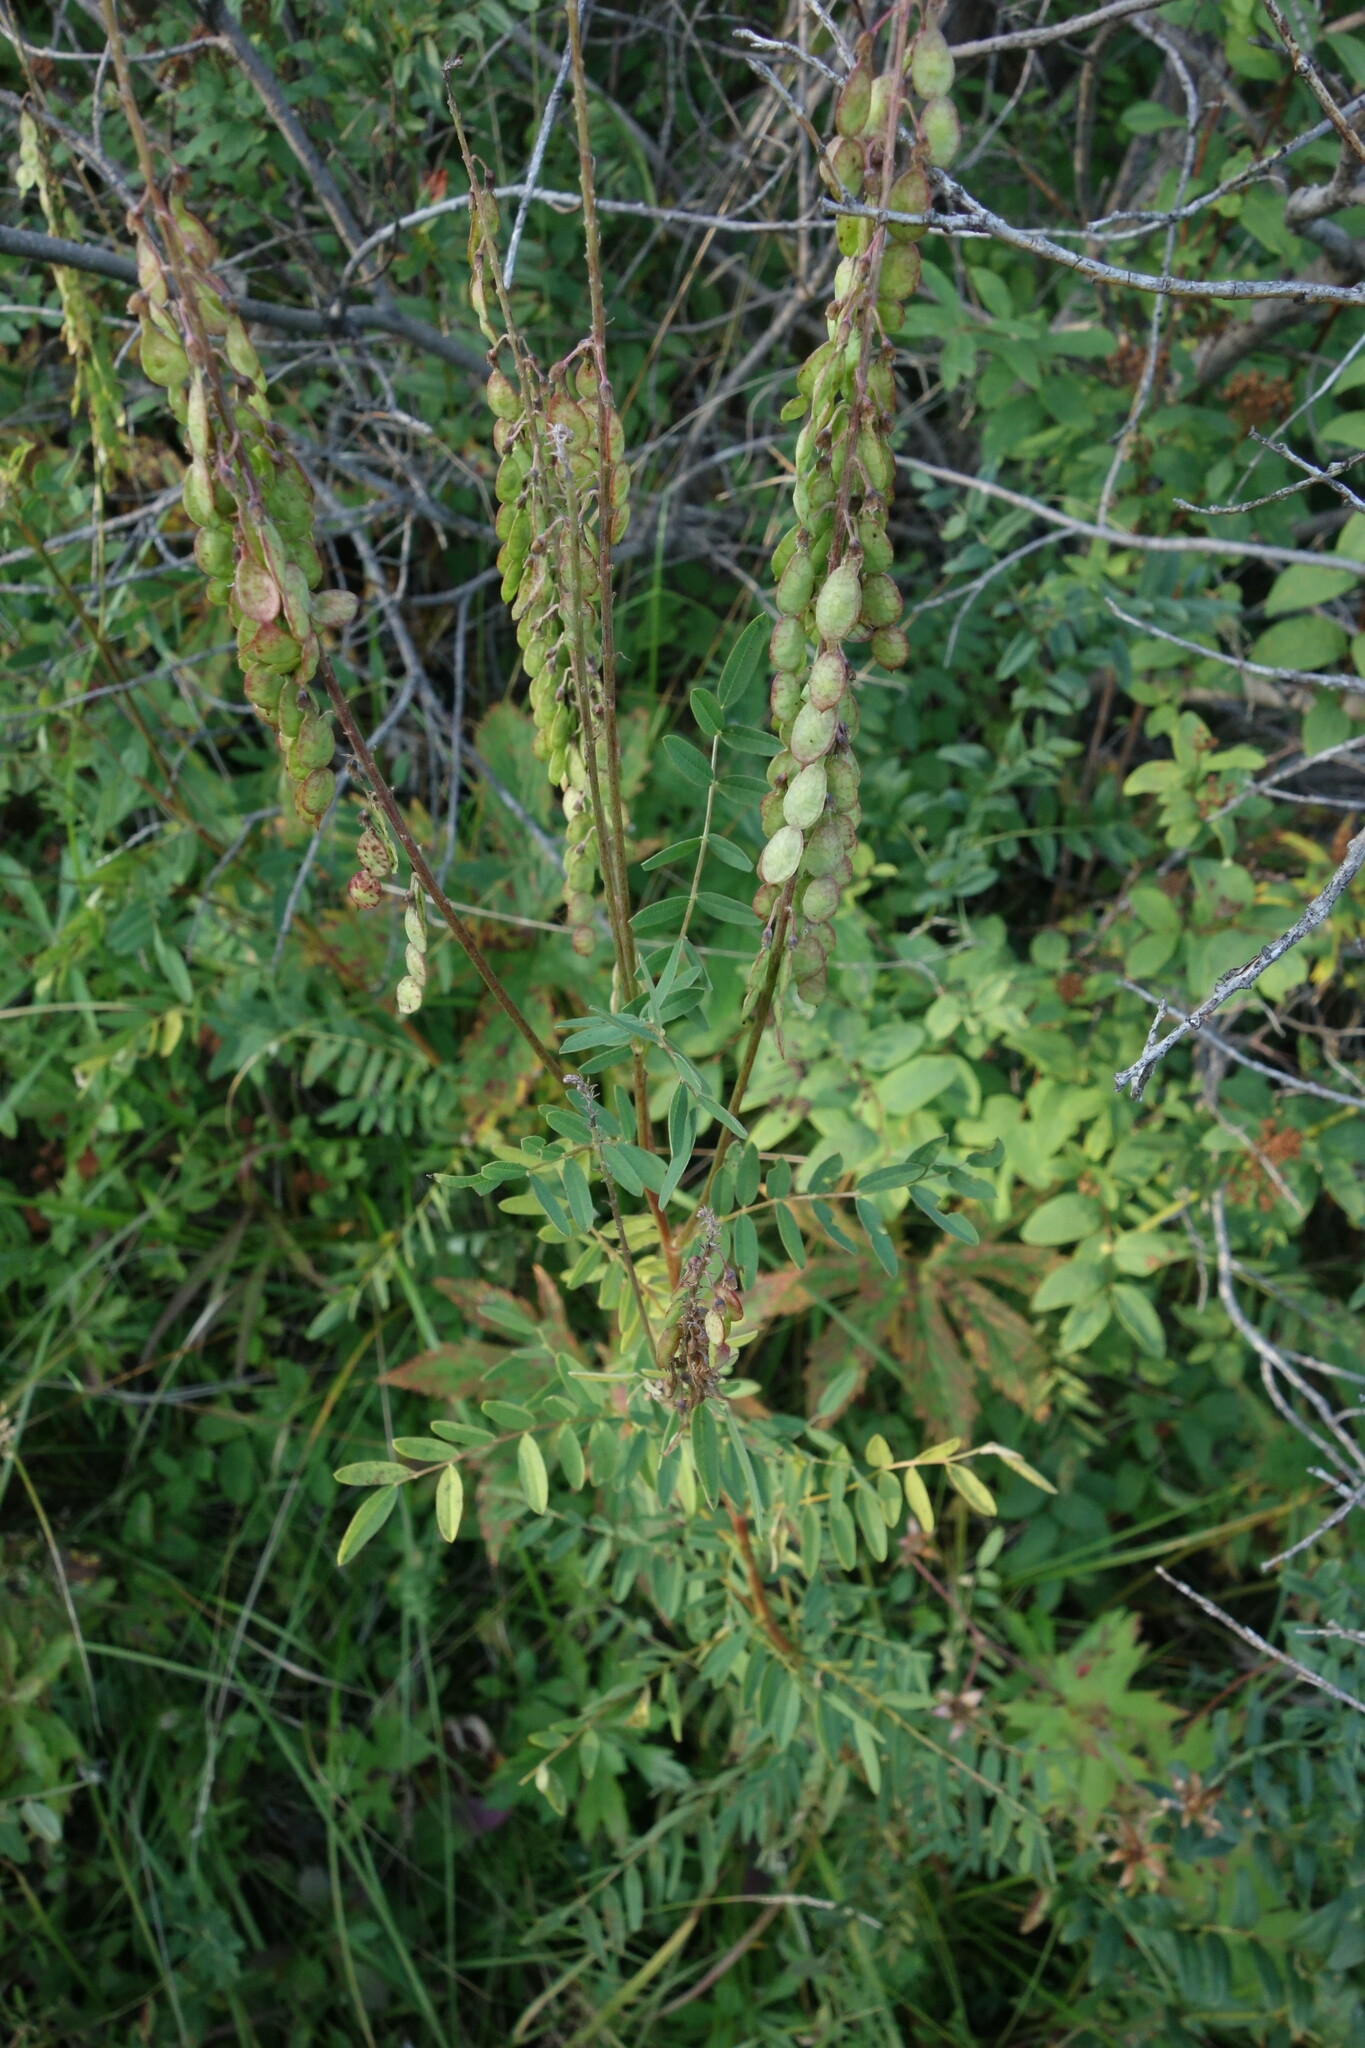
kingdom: Plantae
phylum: Tracheophyta
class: Magnoliopsida
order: Fabales
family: Fabaceae
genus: Hedysarum
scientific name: Hedysarum alpinum
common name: Alpine sweet-vetch
